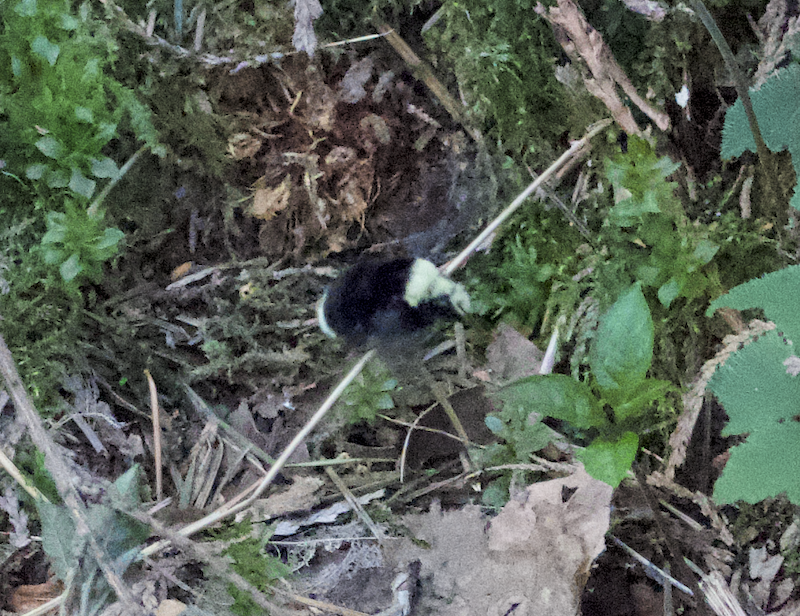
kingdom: Animalia
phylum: Arthropoda
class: Insecta
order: Hymenoptera
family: Apidae
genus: Bombus
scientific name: Bombus vosnesenskii
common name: Vosnesensky bumble bee
